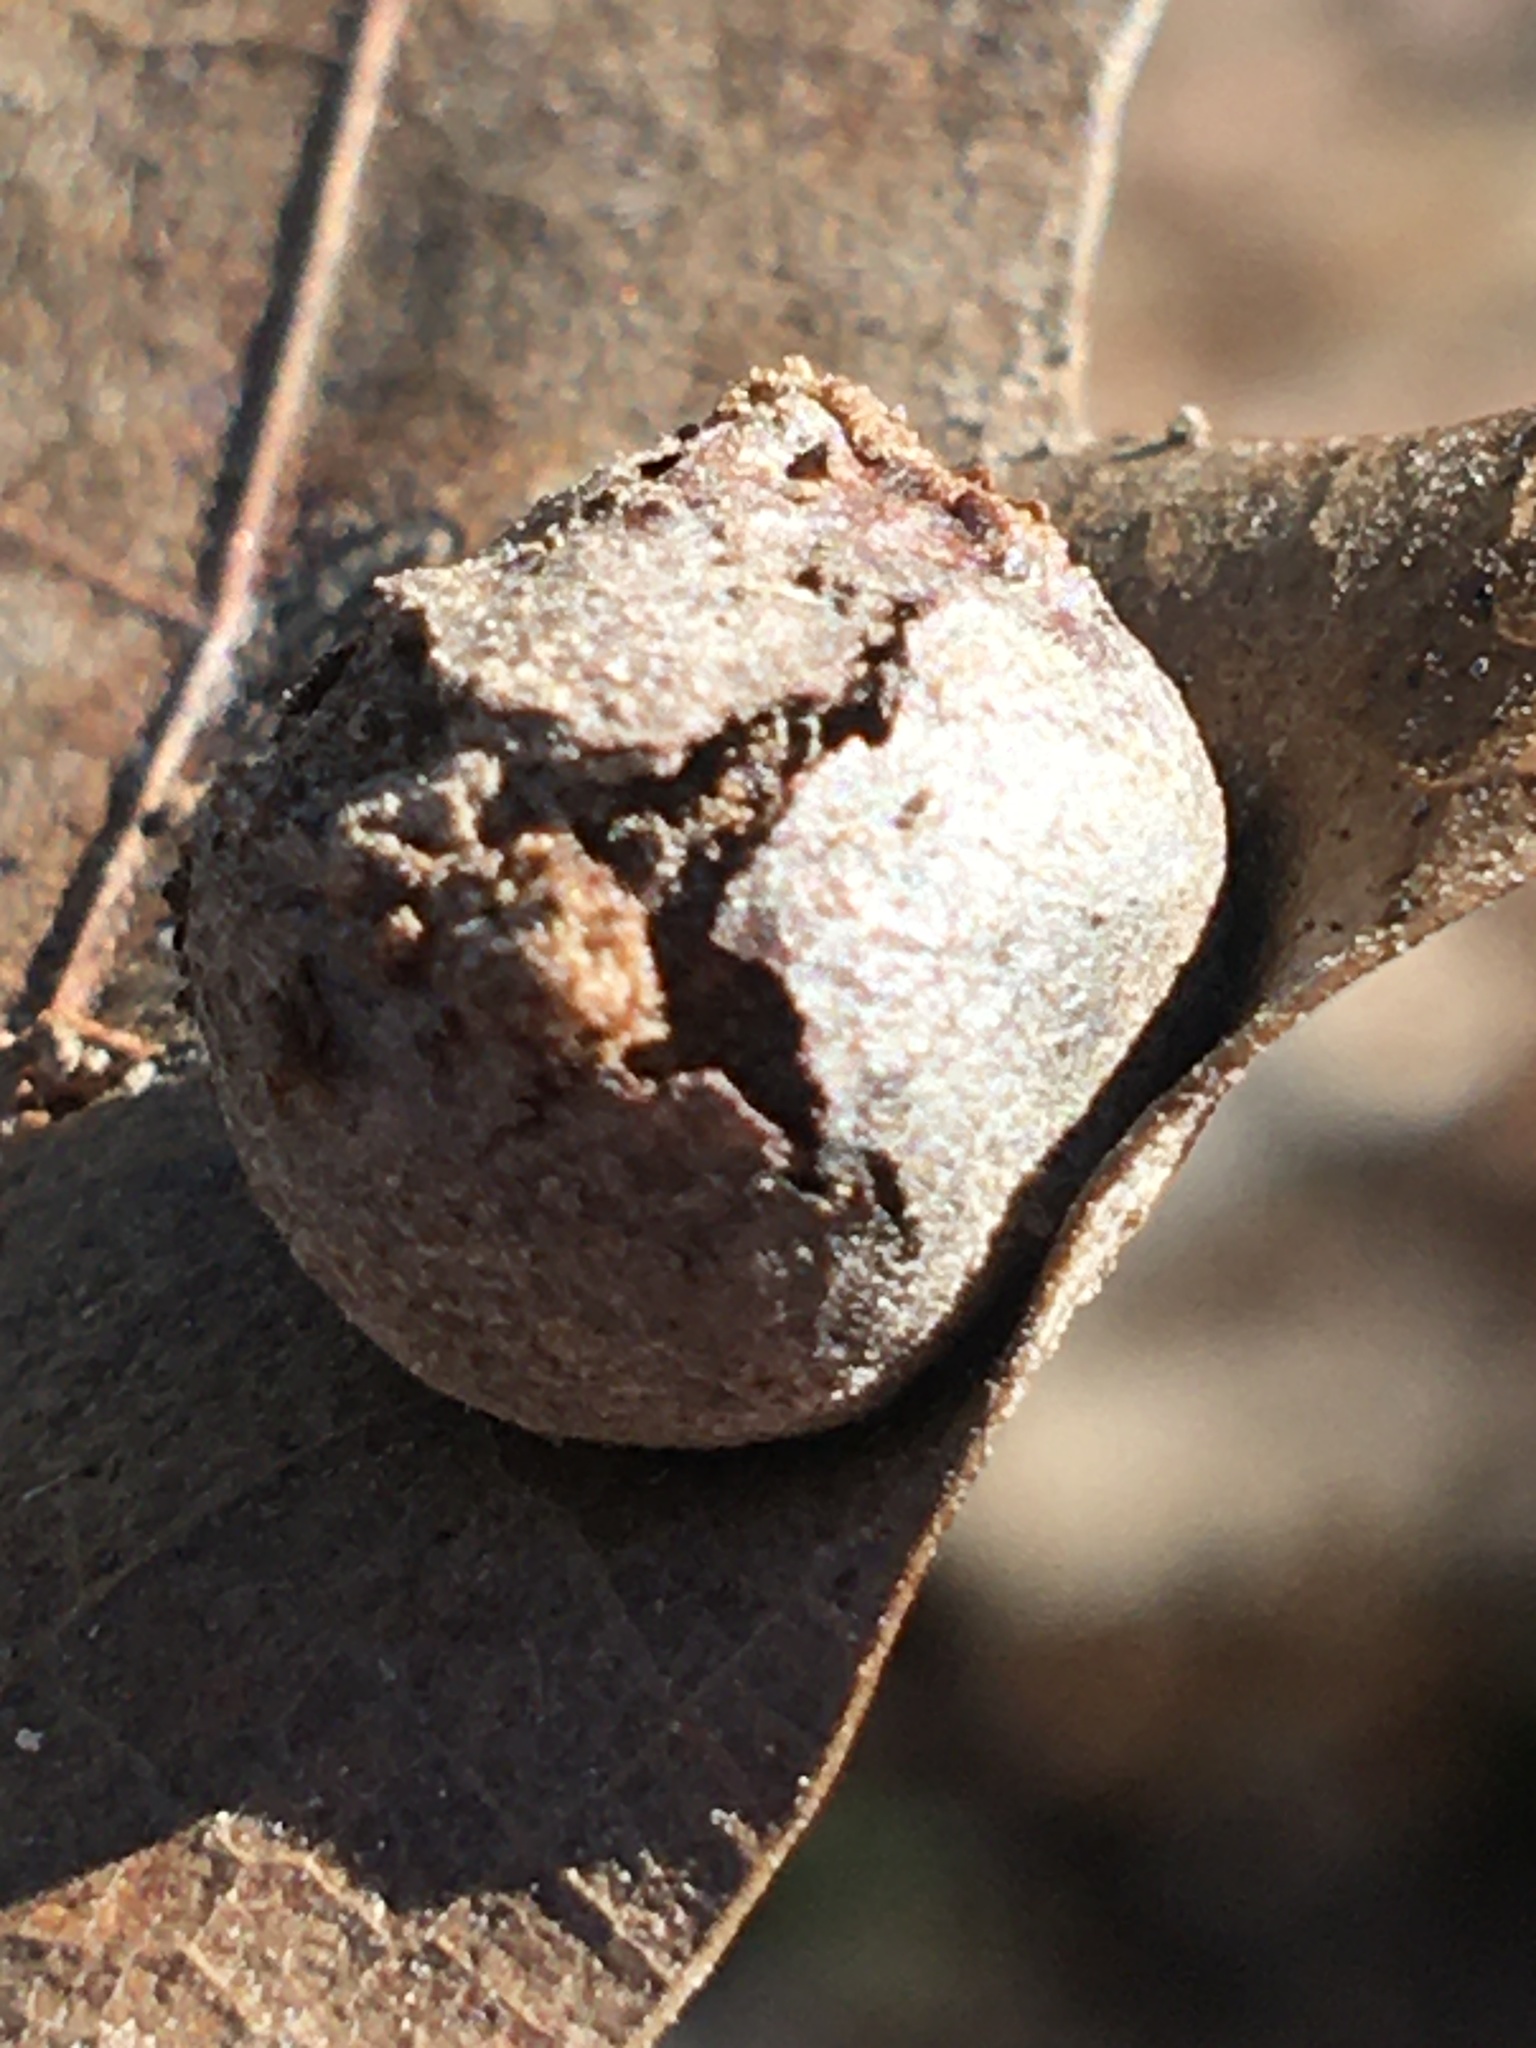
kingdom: Animalia
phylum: Arthropoda
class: Insecta
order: Diptera
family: Cecidomyiidae
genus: Polystepha
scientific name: Polystepha pilulae
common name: Oak leaf gall midge
